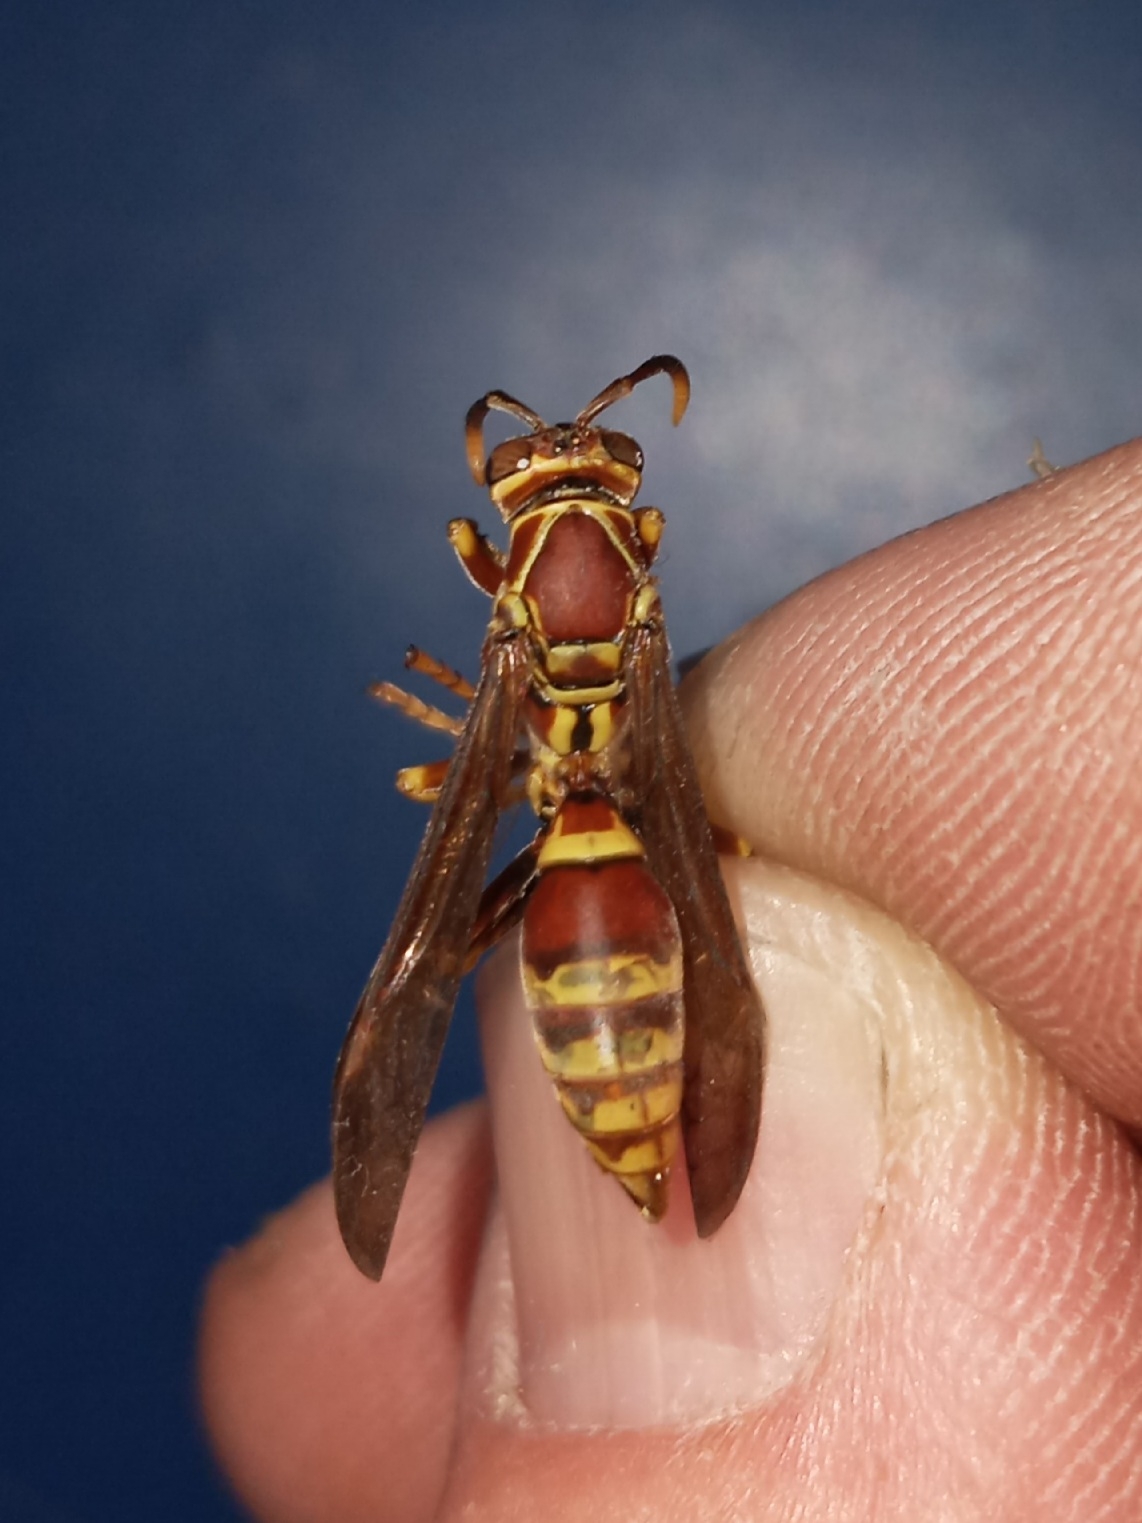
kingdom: Animalia
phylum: Arthropoda
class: Insecta
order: Hymenoptera
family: Eumenidae
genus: Polistes
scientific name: Polistes exclamans
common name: Paper wasp
